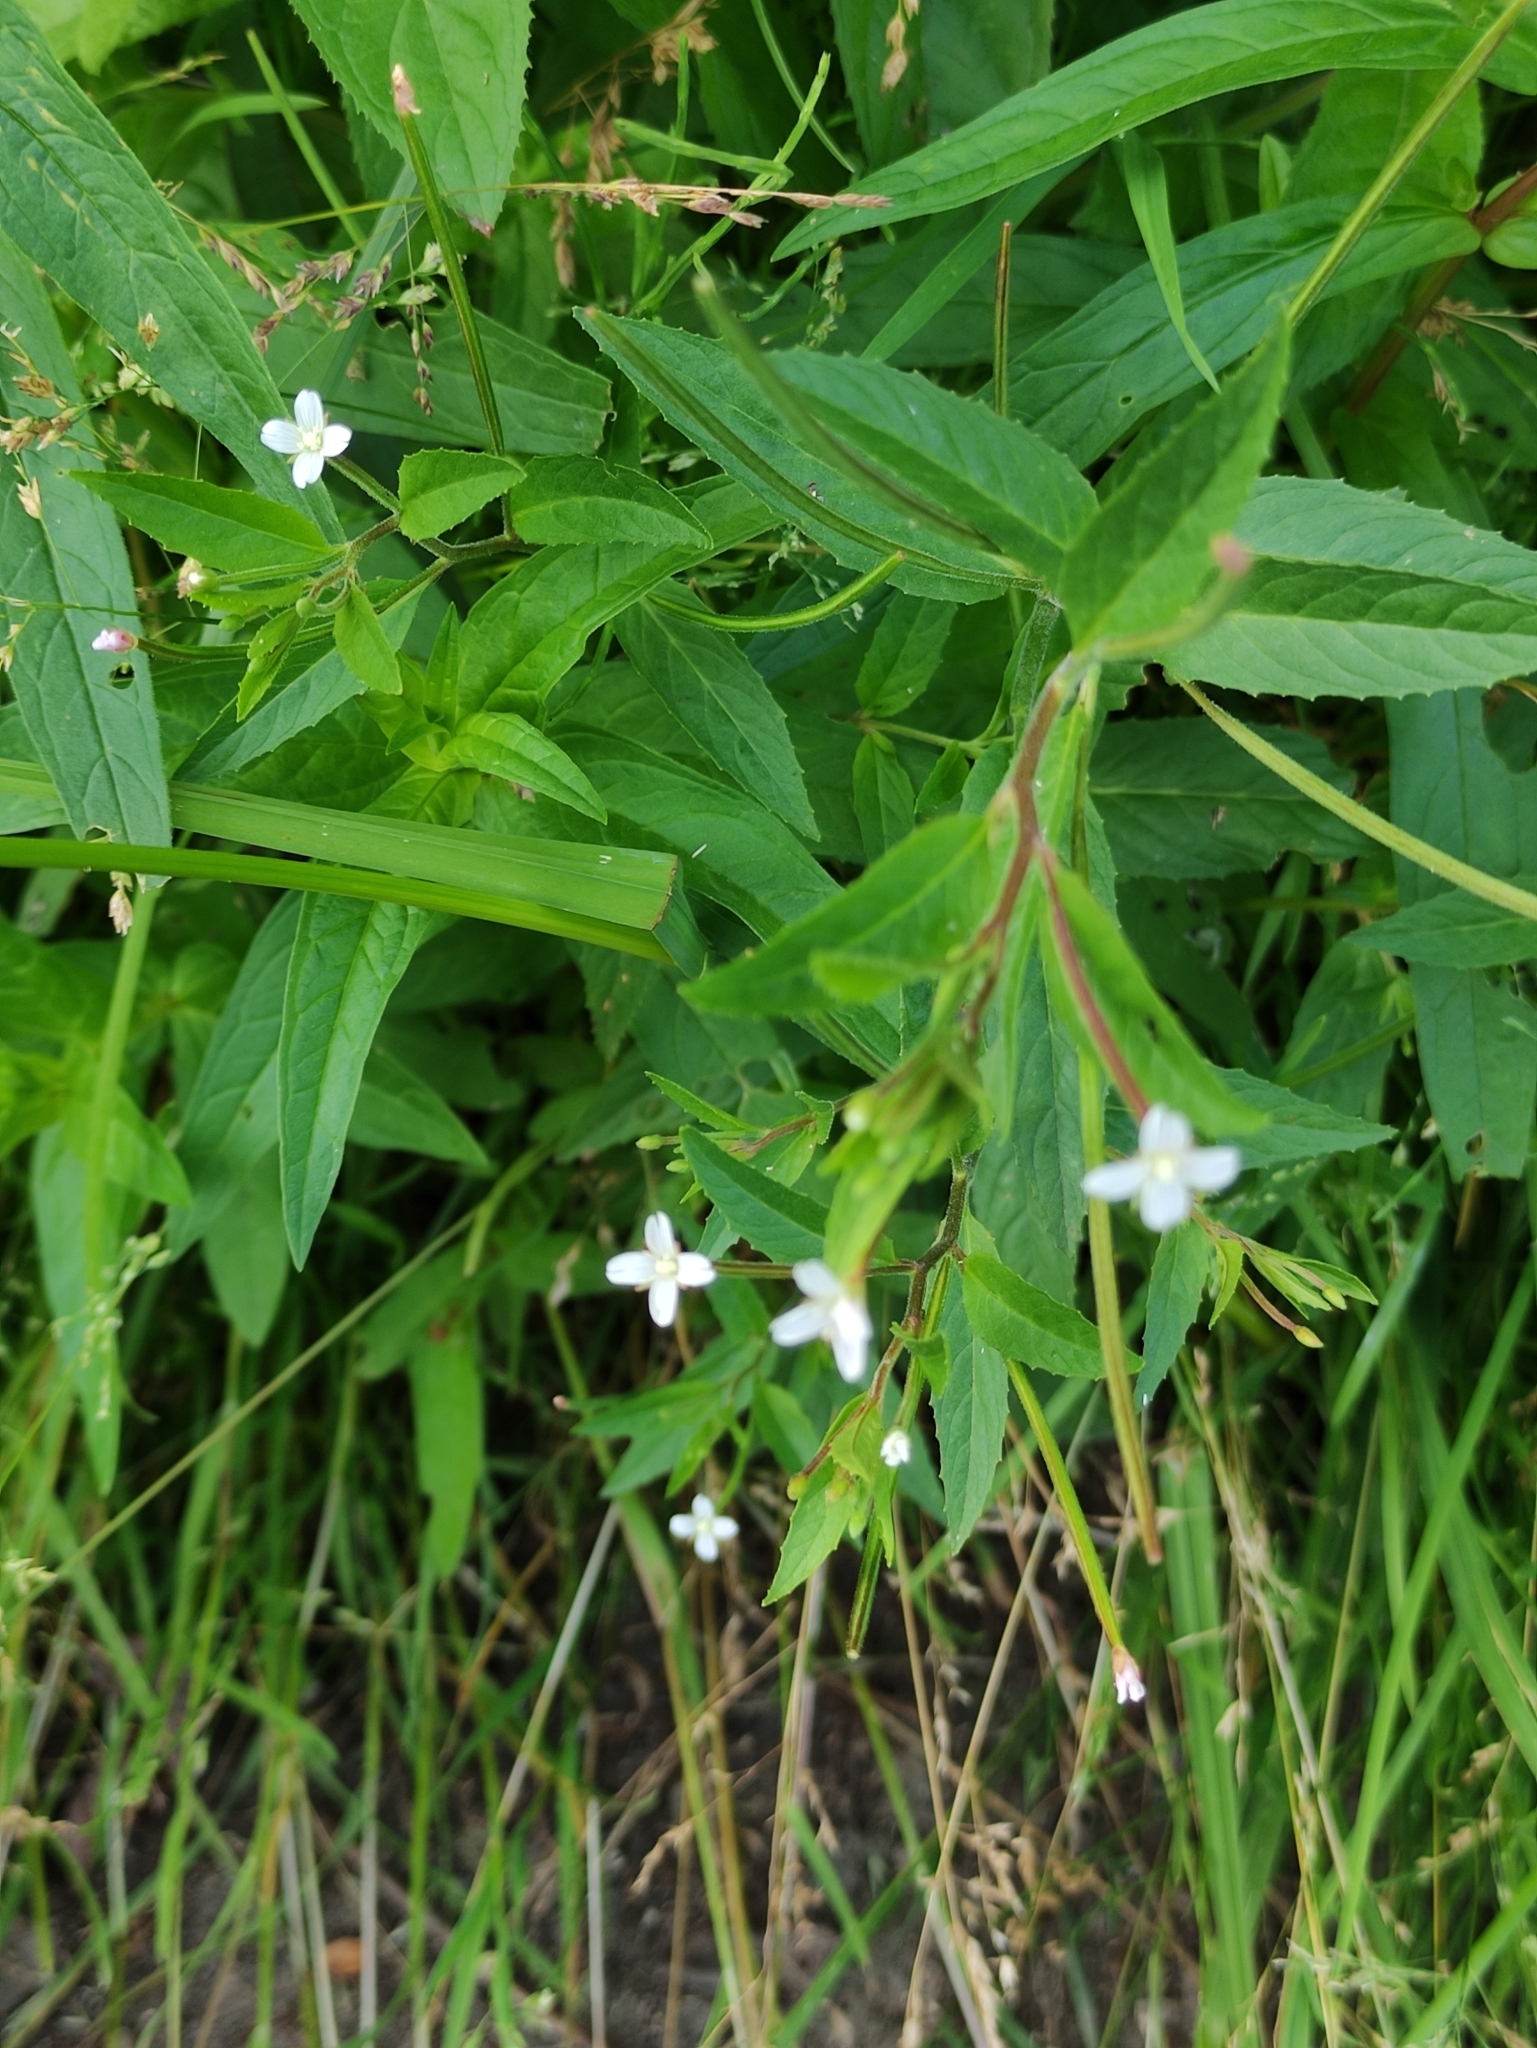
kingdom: Plantae
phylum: Tracheophyta
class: Magnoliopsida
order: Myrtales
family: Onagraceae
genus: Epilobium
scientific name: Epilobium pseudorubescens
